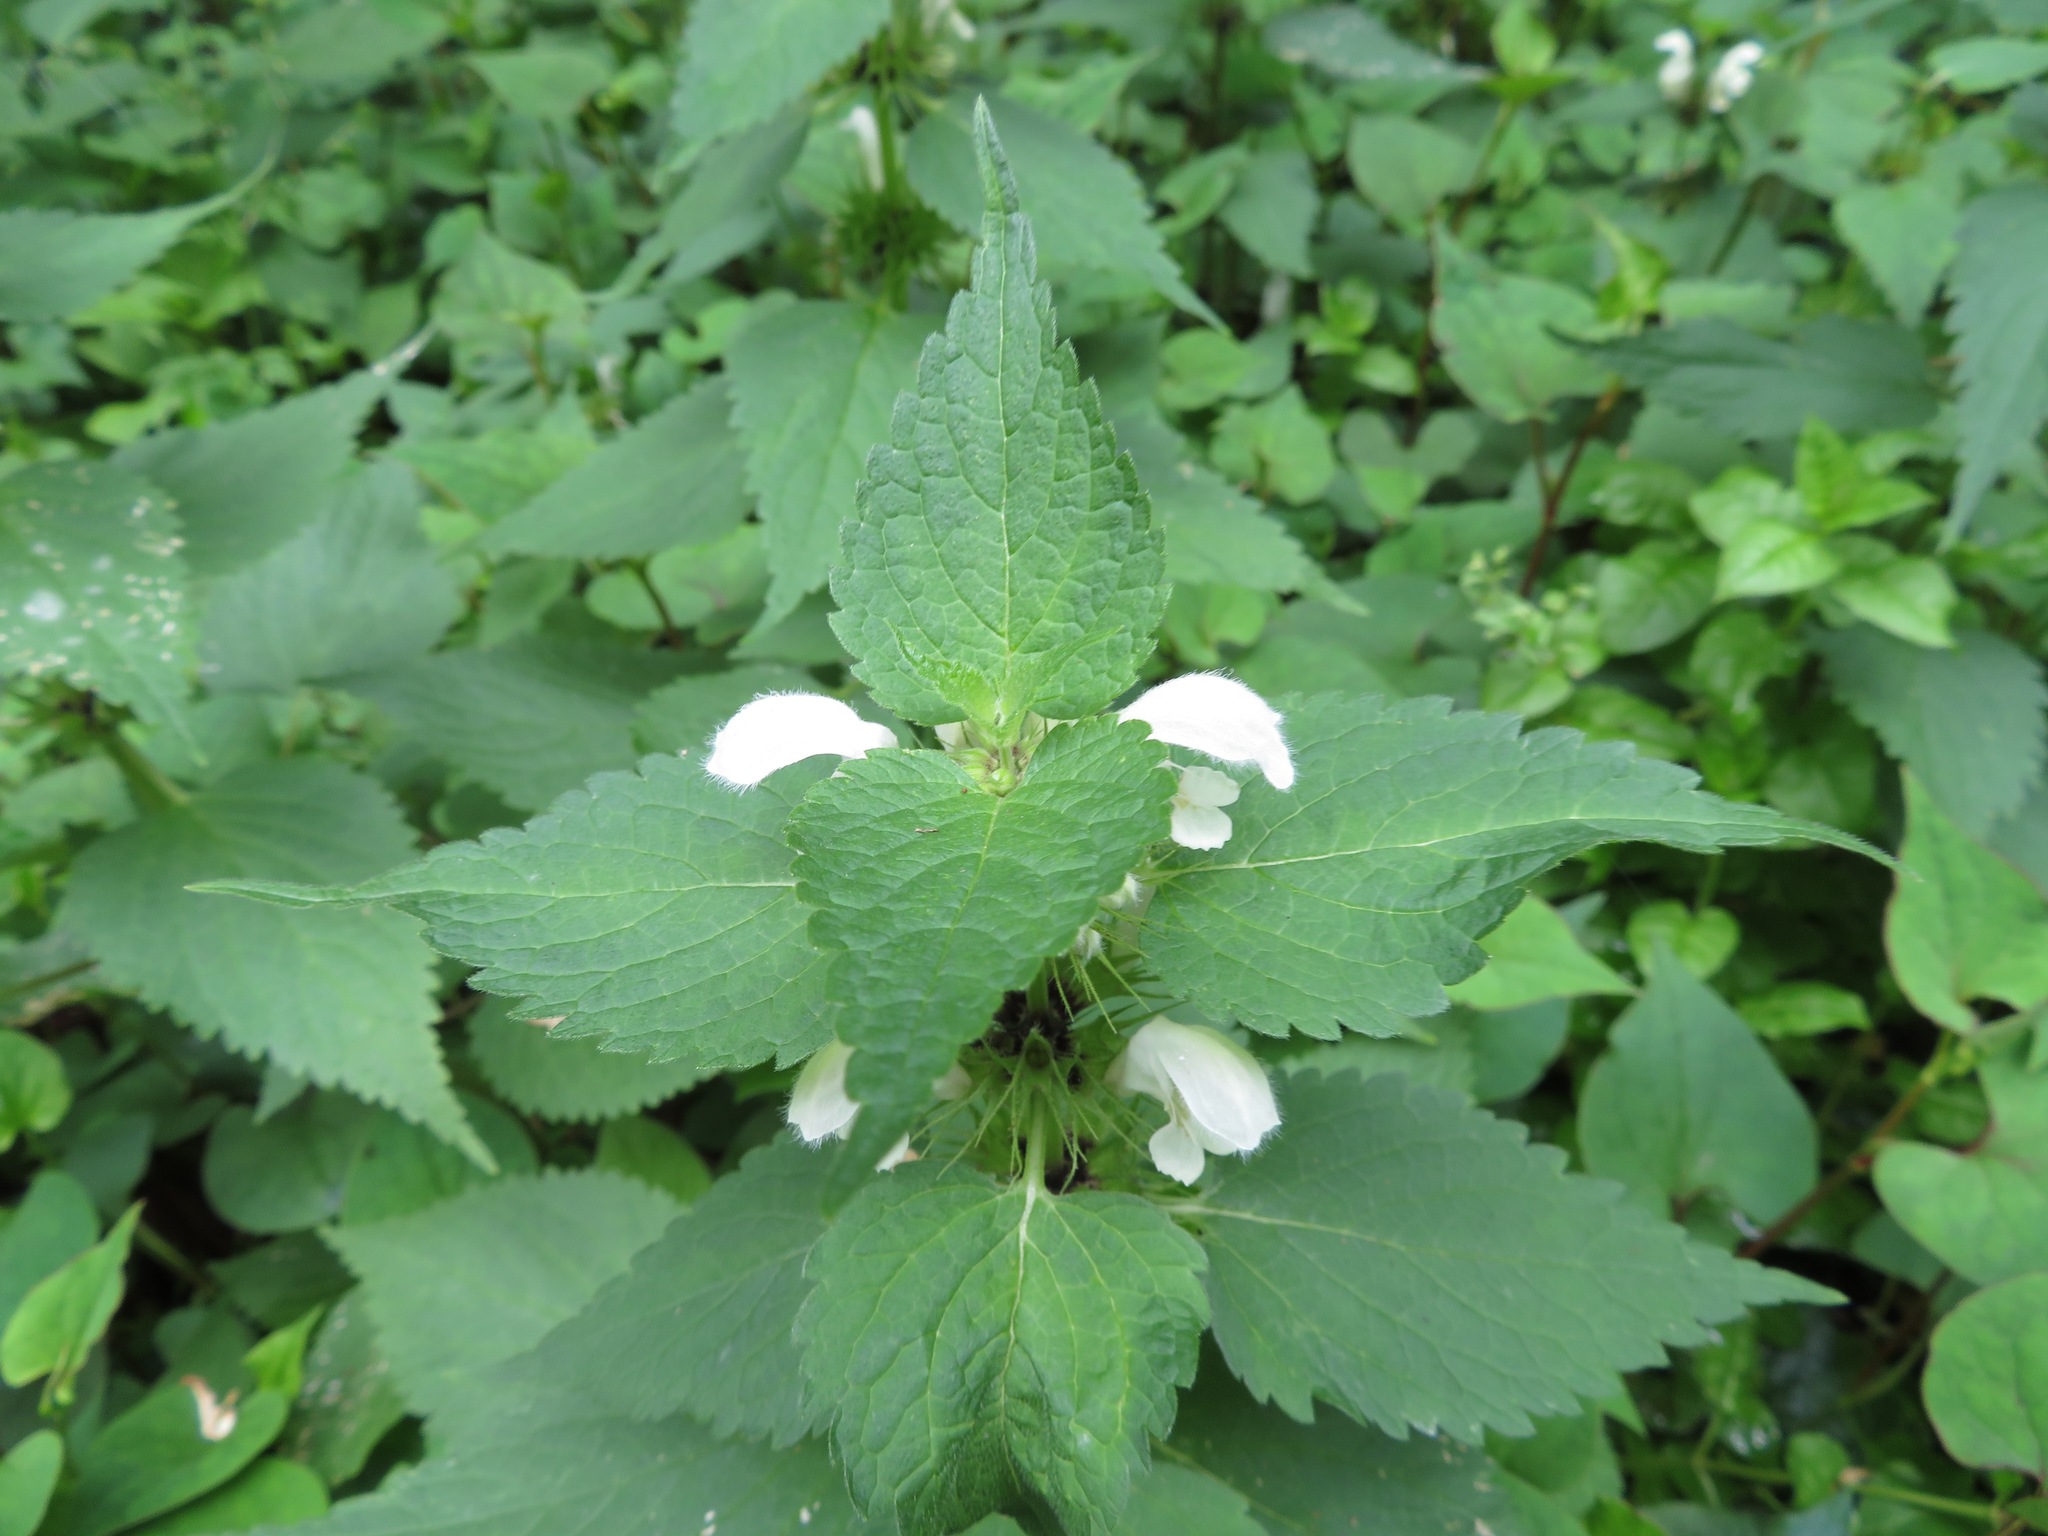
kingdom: Plantae
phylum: Tracheophyta
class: Magnoliopsida
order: Lamiales
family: Lamiaceae
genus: Lamium
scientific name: Lamium album
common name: White dead-nettle
